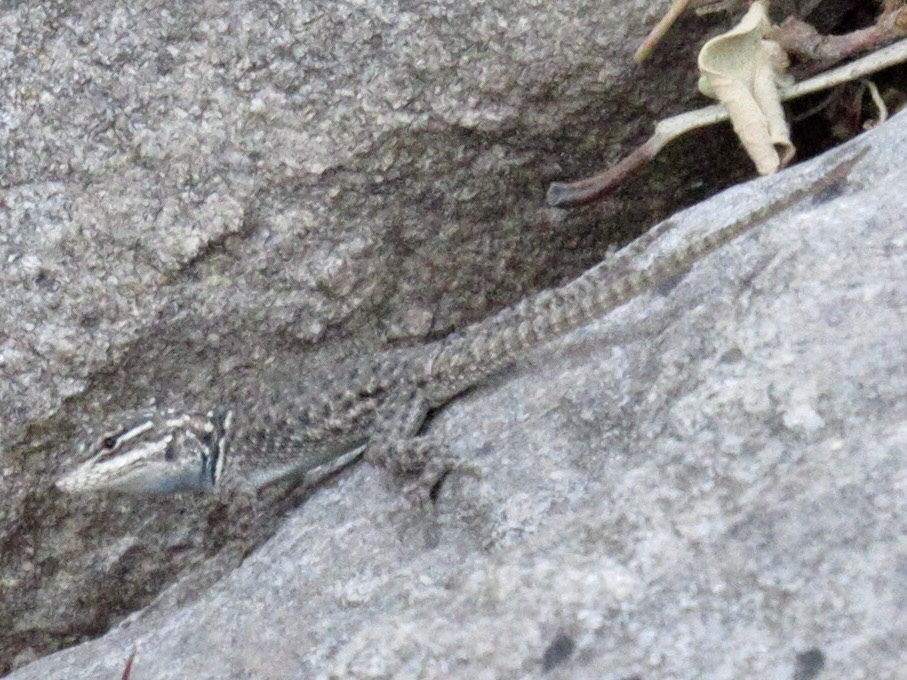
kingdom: Animalia
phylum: Chordata
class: Squamata
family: Phrynosomatidae
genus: Sceloporus
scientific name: Sceloporus jarrovii
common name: Yarrow's spiny lizard
